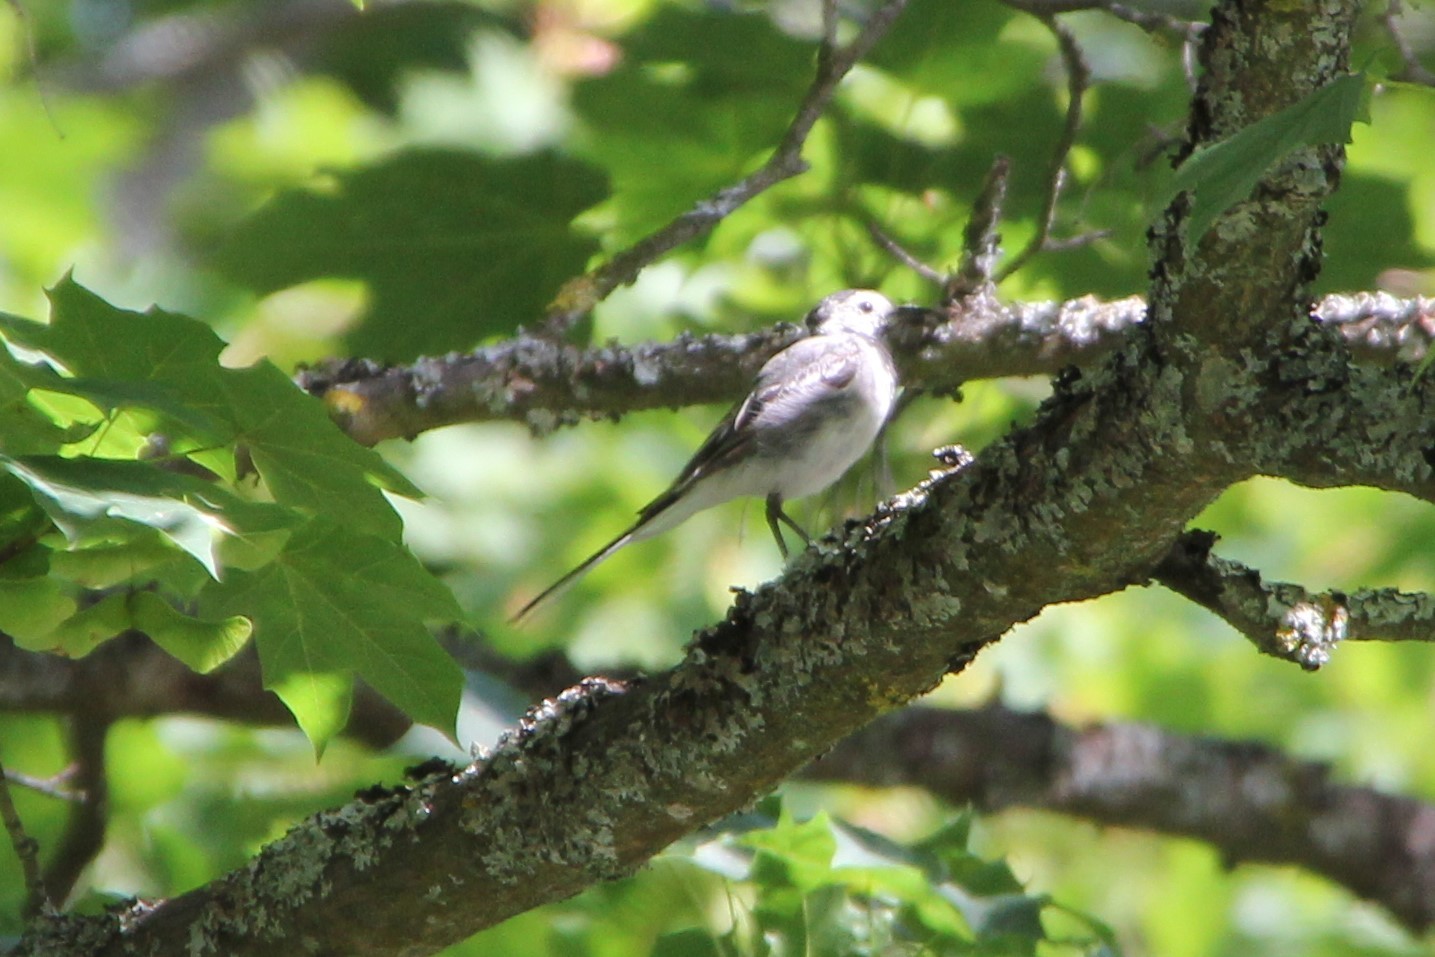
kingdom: Animalia
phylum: Chordata
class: Aves
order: Passeriformes
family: Motacillidae
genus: Motacilla
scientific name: Motacilla alba
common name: White wagtail
